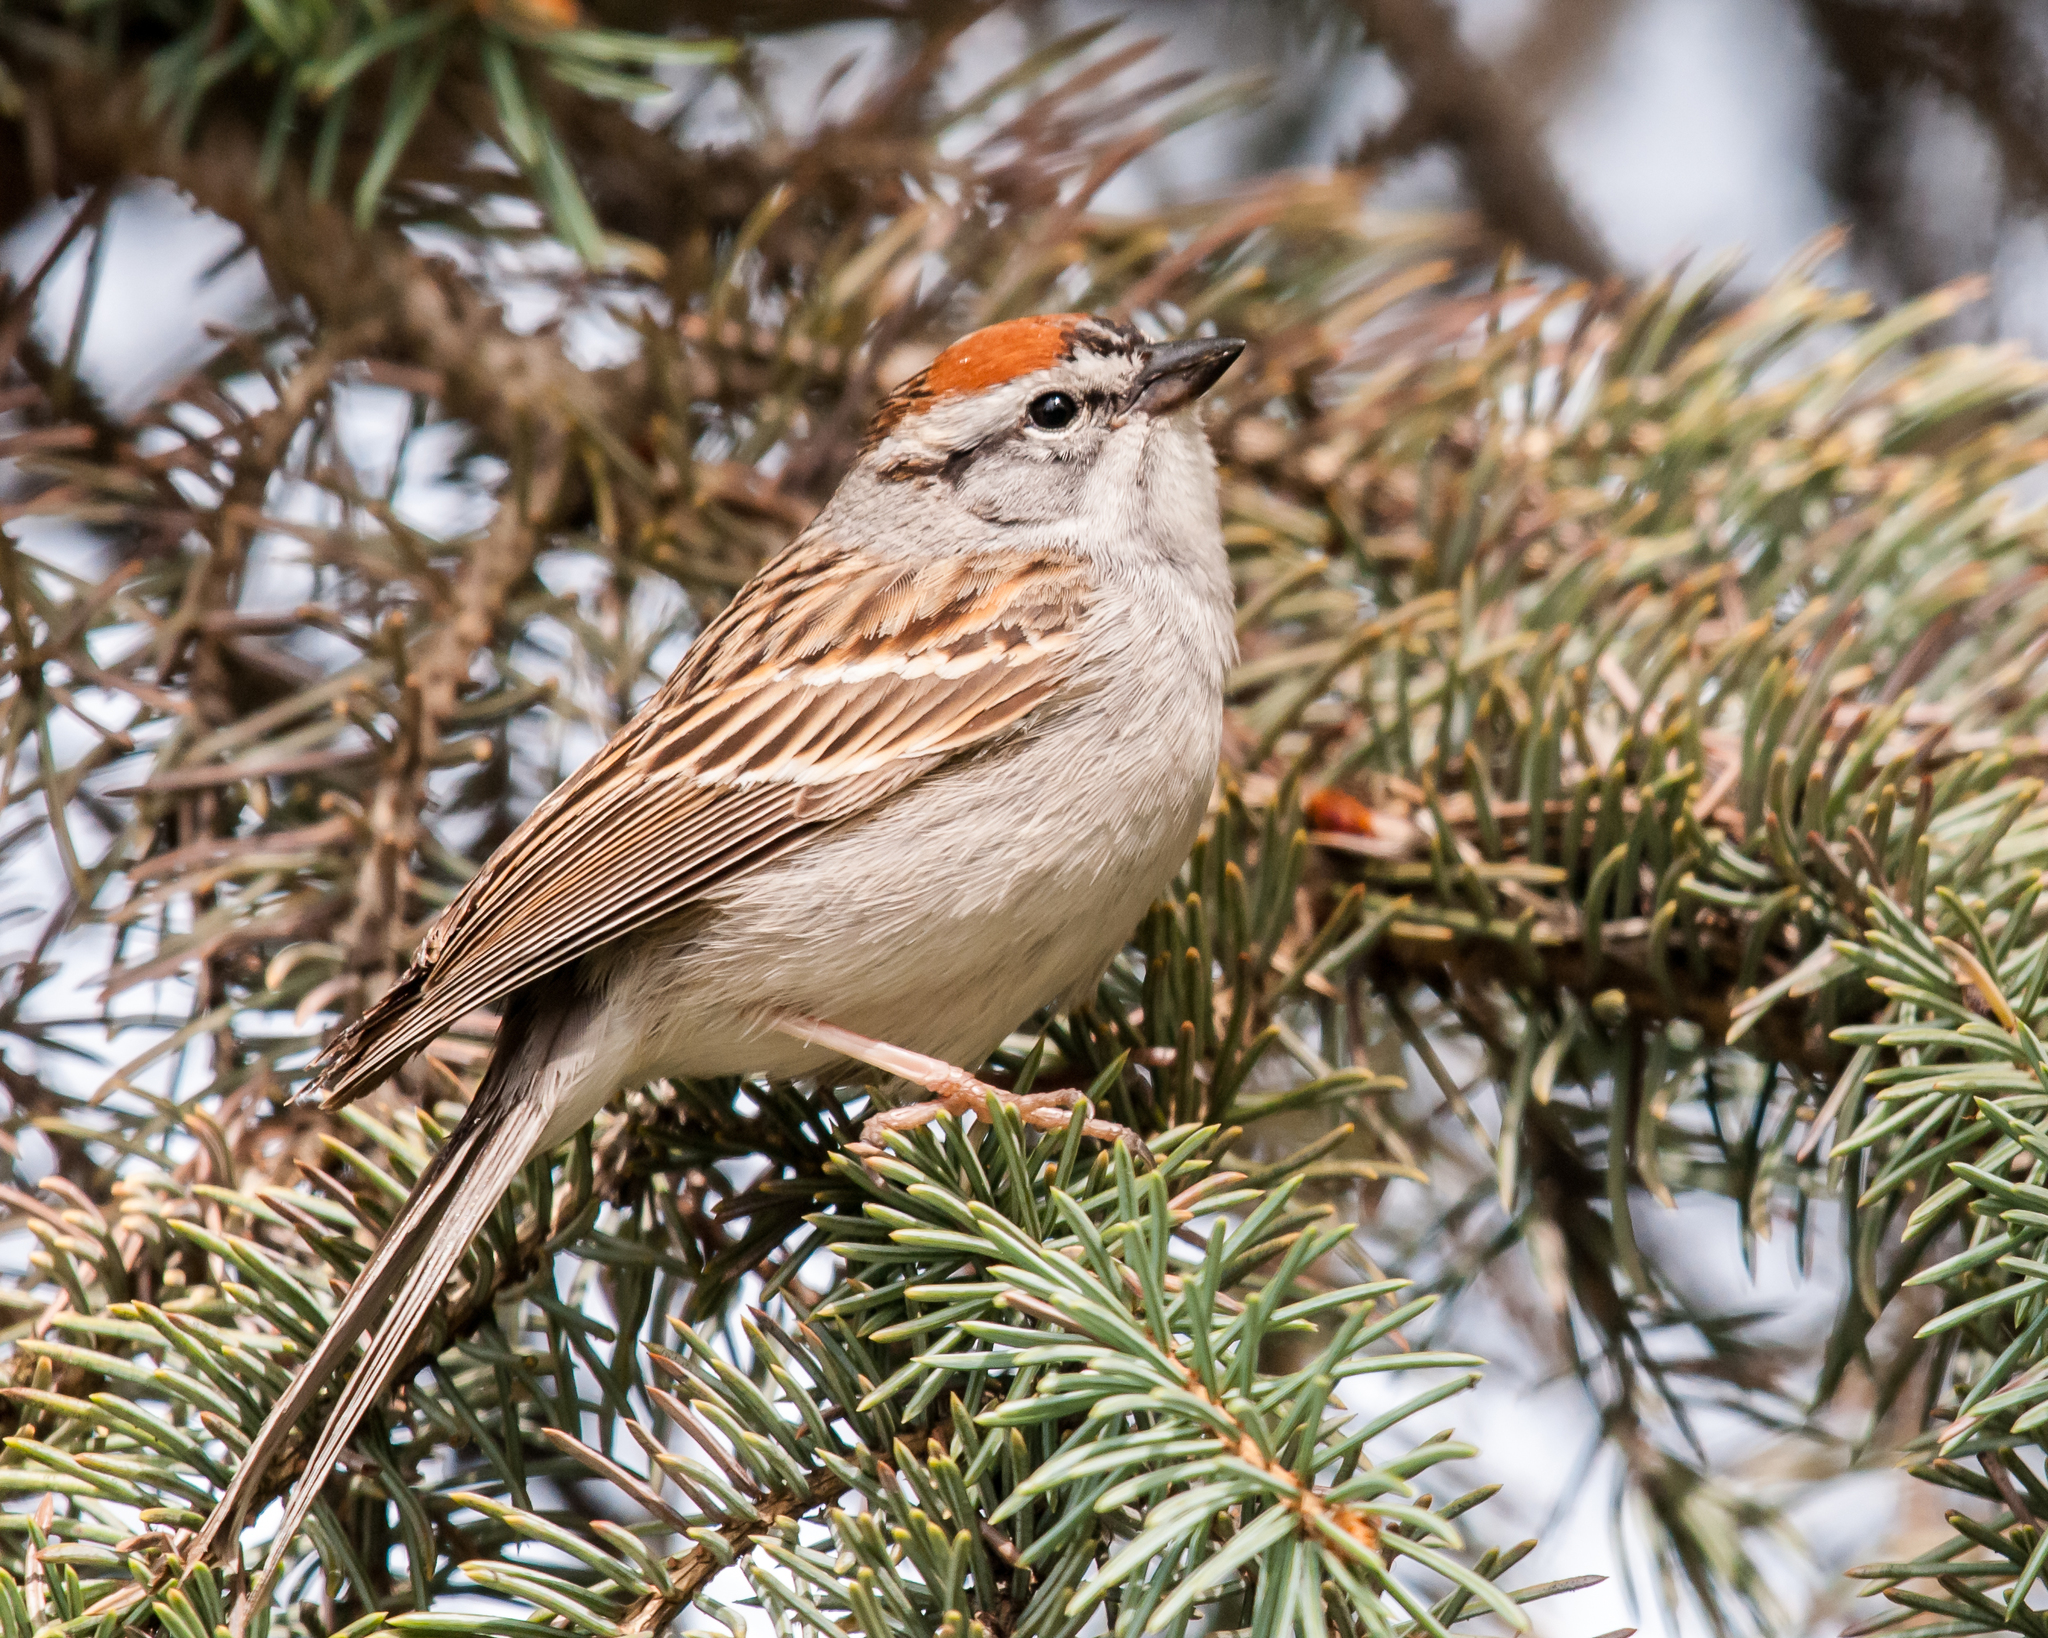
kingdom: Animalia
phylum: Chordata
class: Aves
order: Passeriformes
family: Passerellidae
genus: Spizella
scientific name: Spizella passerina
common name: Chipping sparrow
